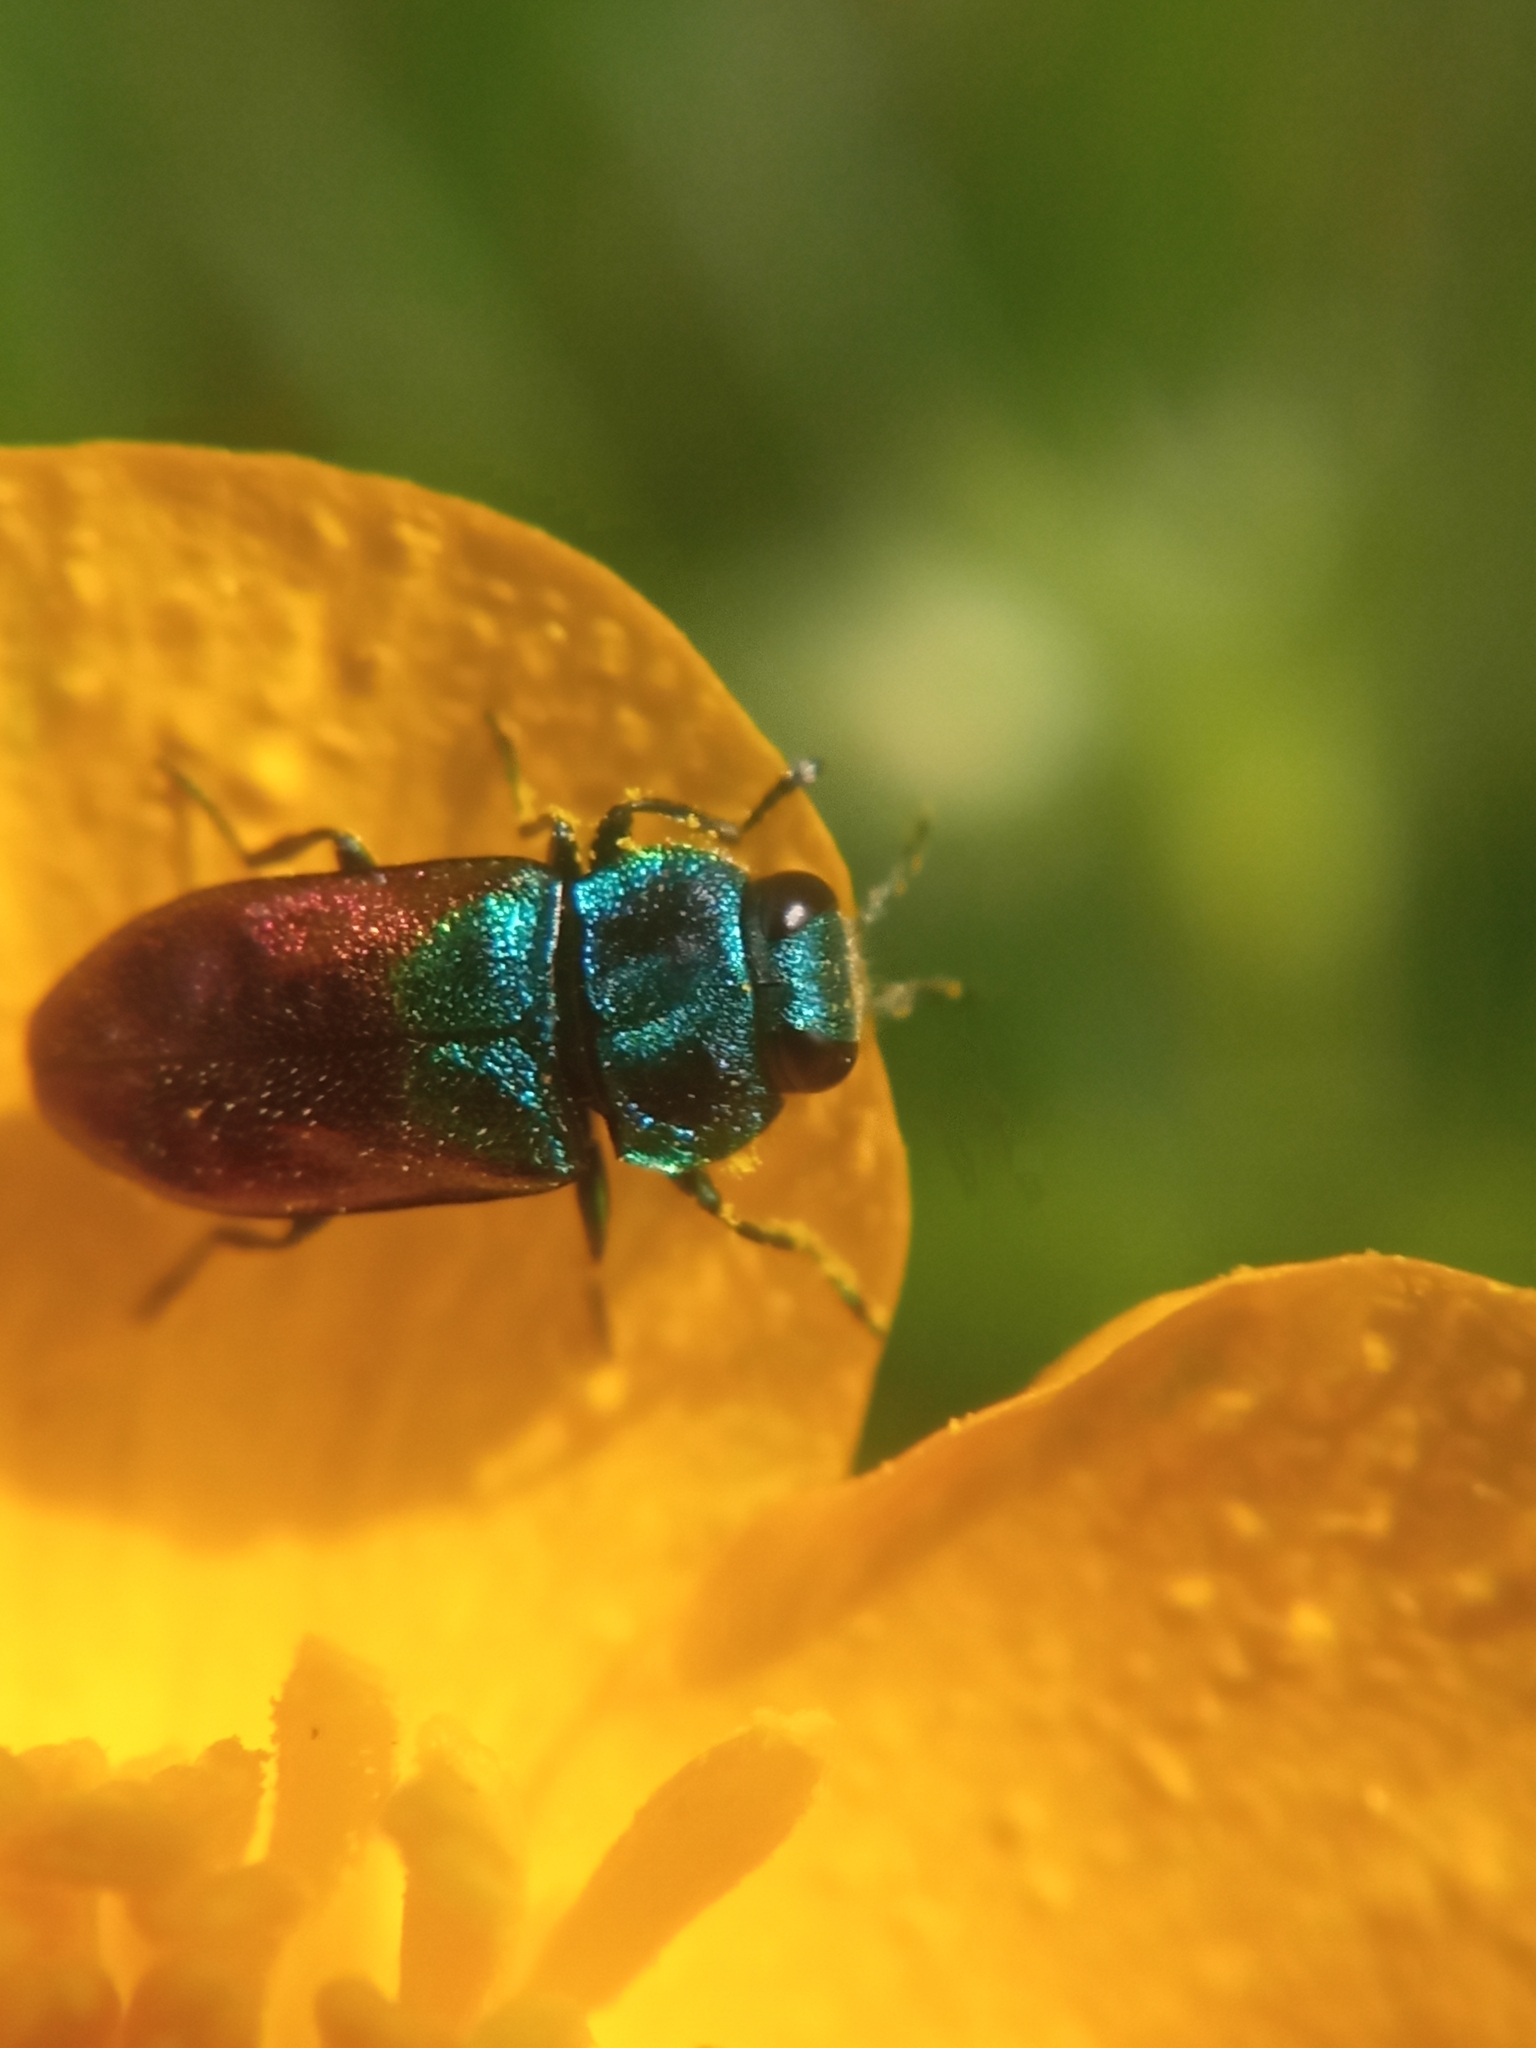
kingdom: Animalia
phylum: Arthropoda
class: Insecta
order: Coleoptera
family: Buprestidae
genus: Anthaxia
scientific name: Anthaxia salicis
